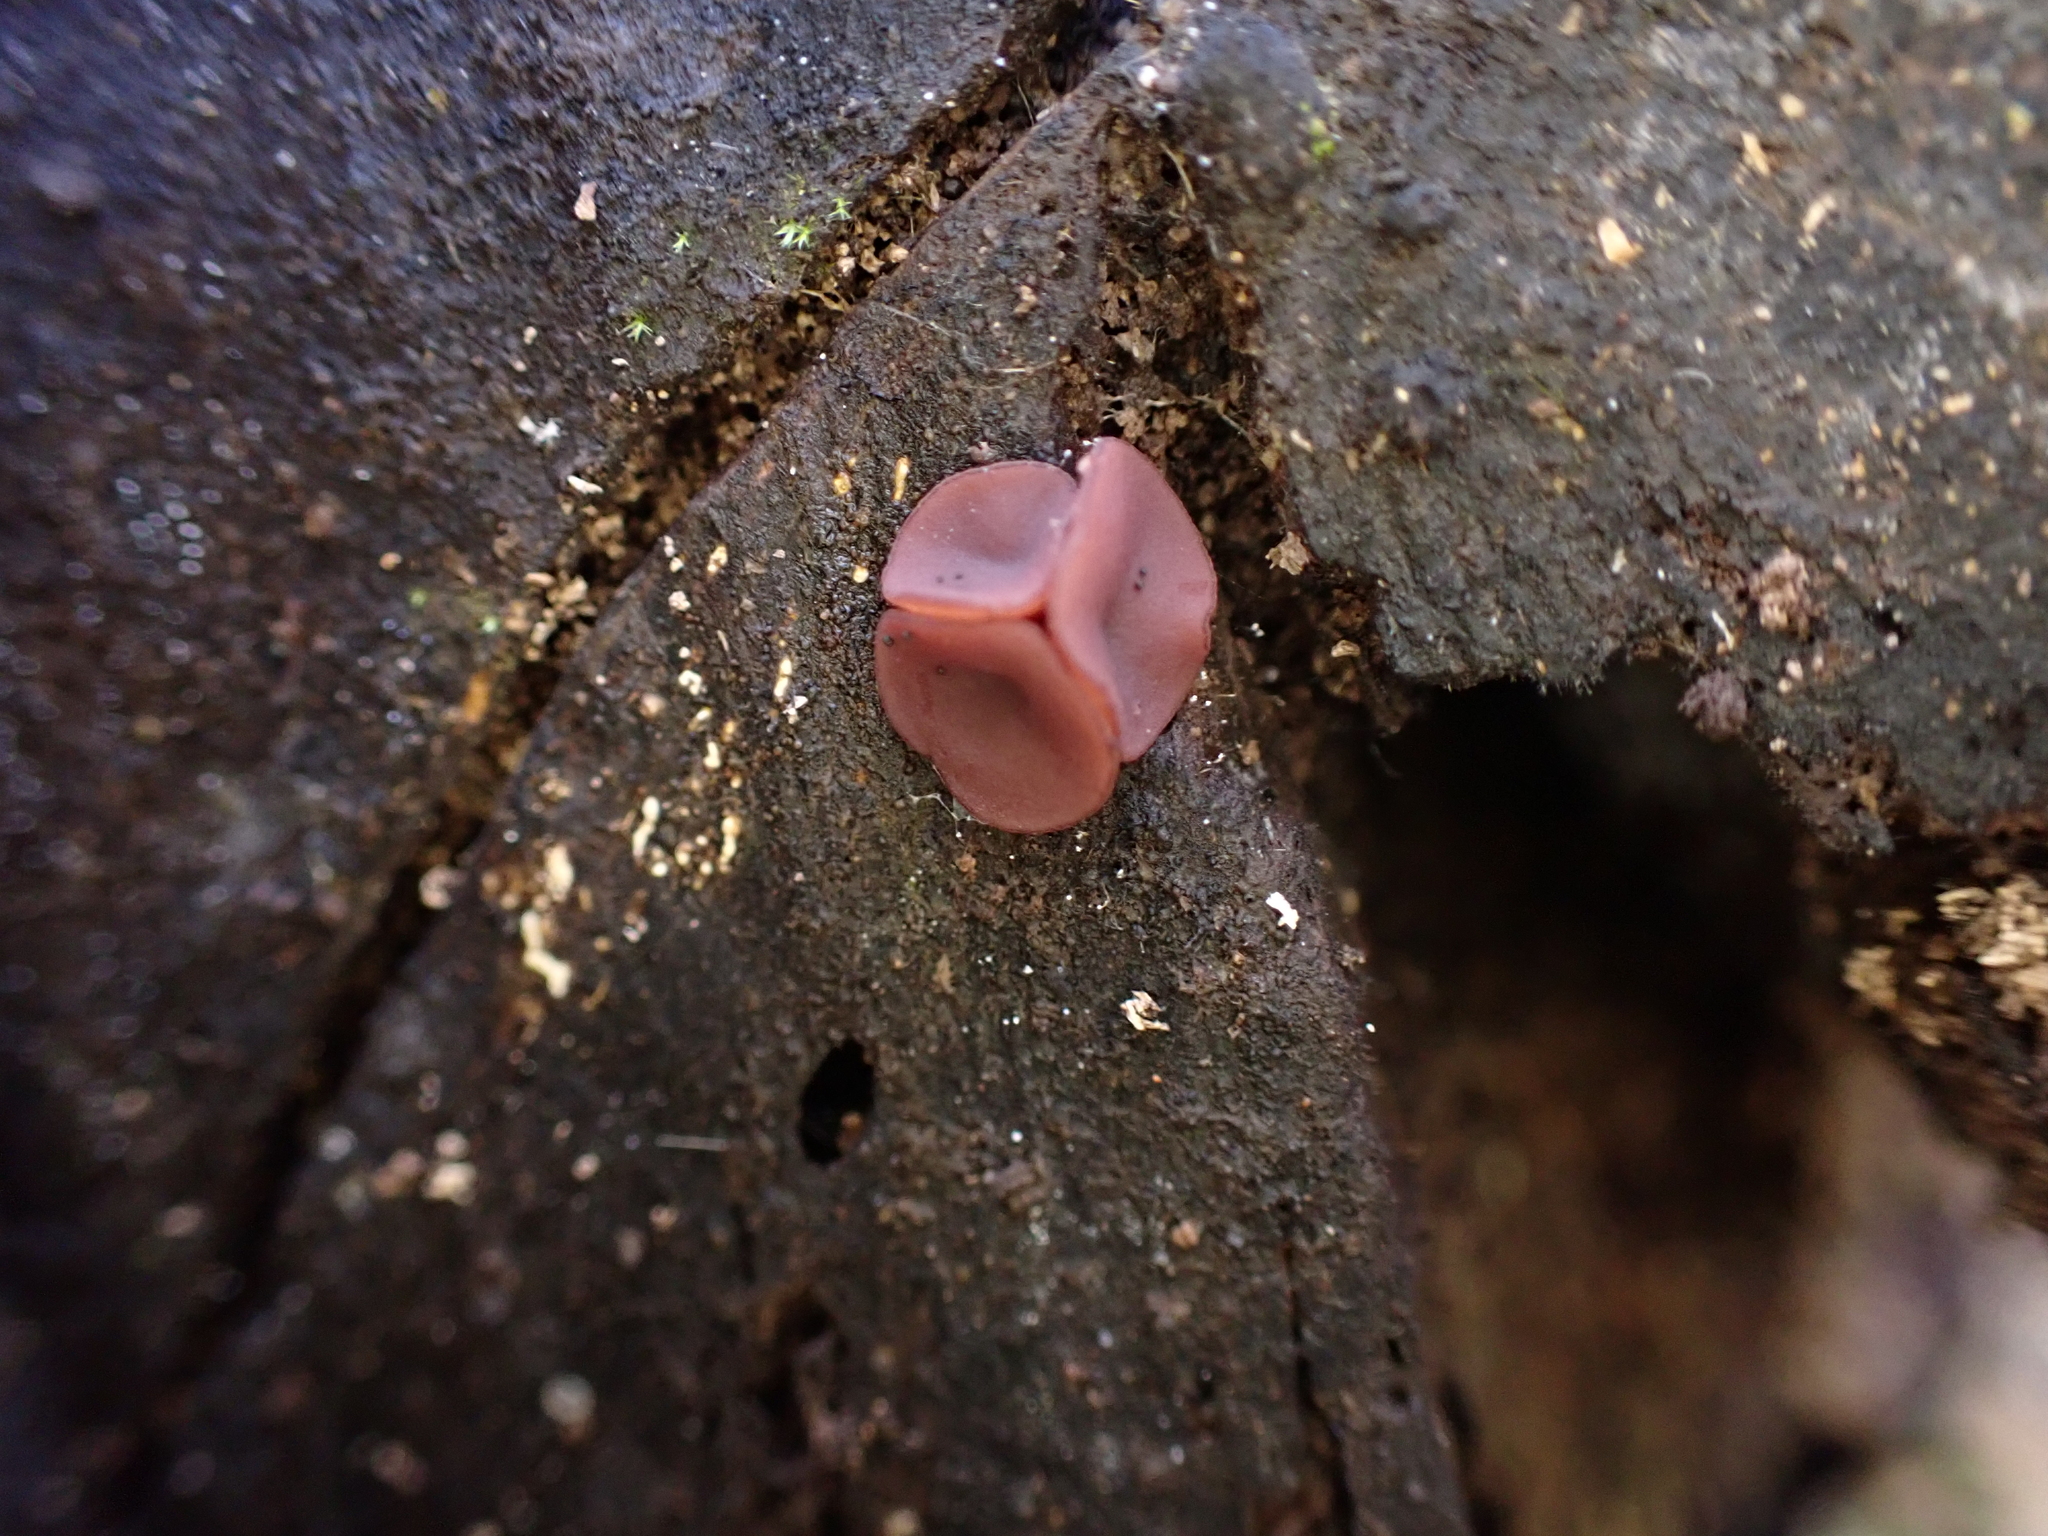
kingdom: Fungi
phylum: Ascomycota
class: Leotiomycetes
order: Helotiales
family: Gelatinodiscaceae
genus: Ascocoryne
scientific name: Ascocoryne cylichnium
